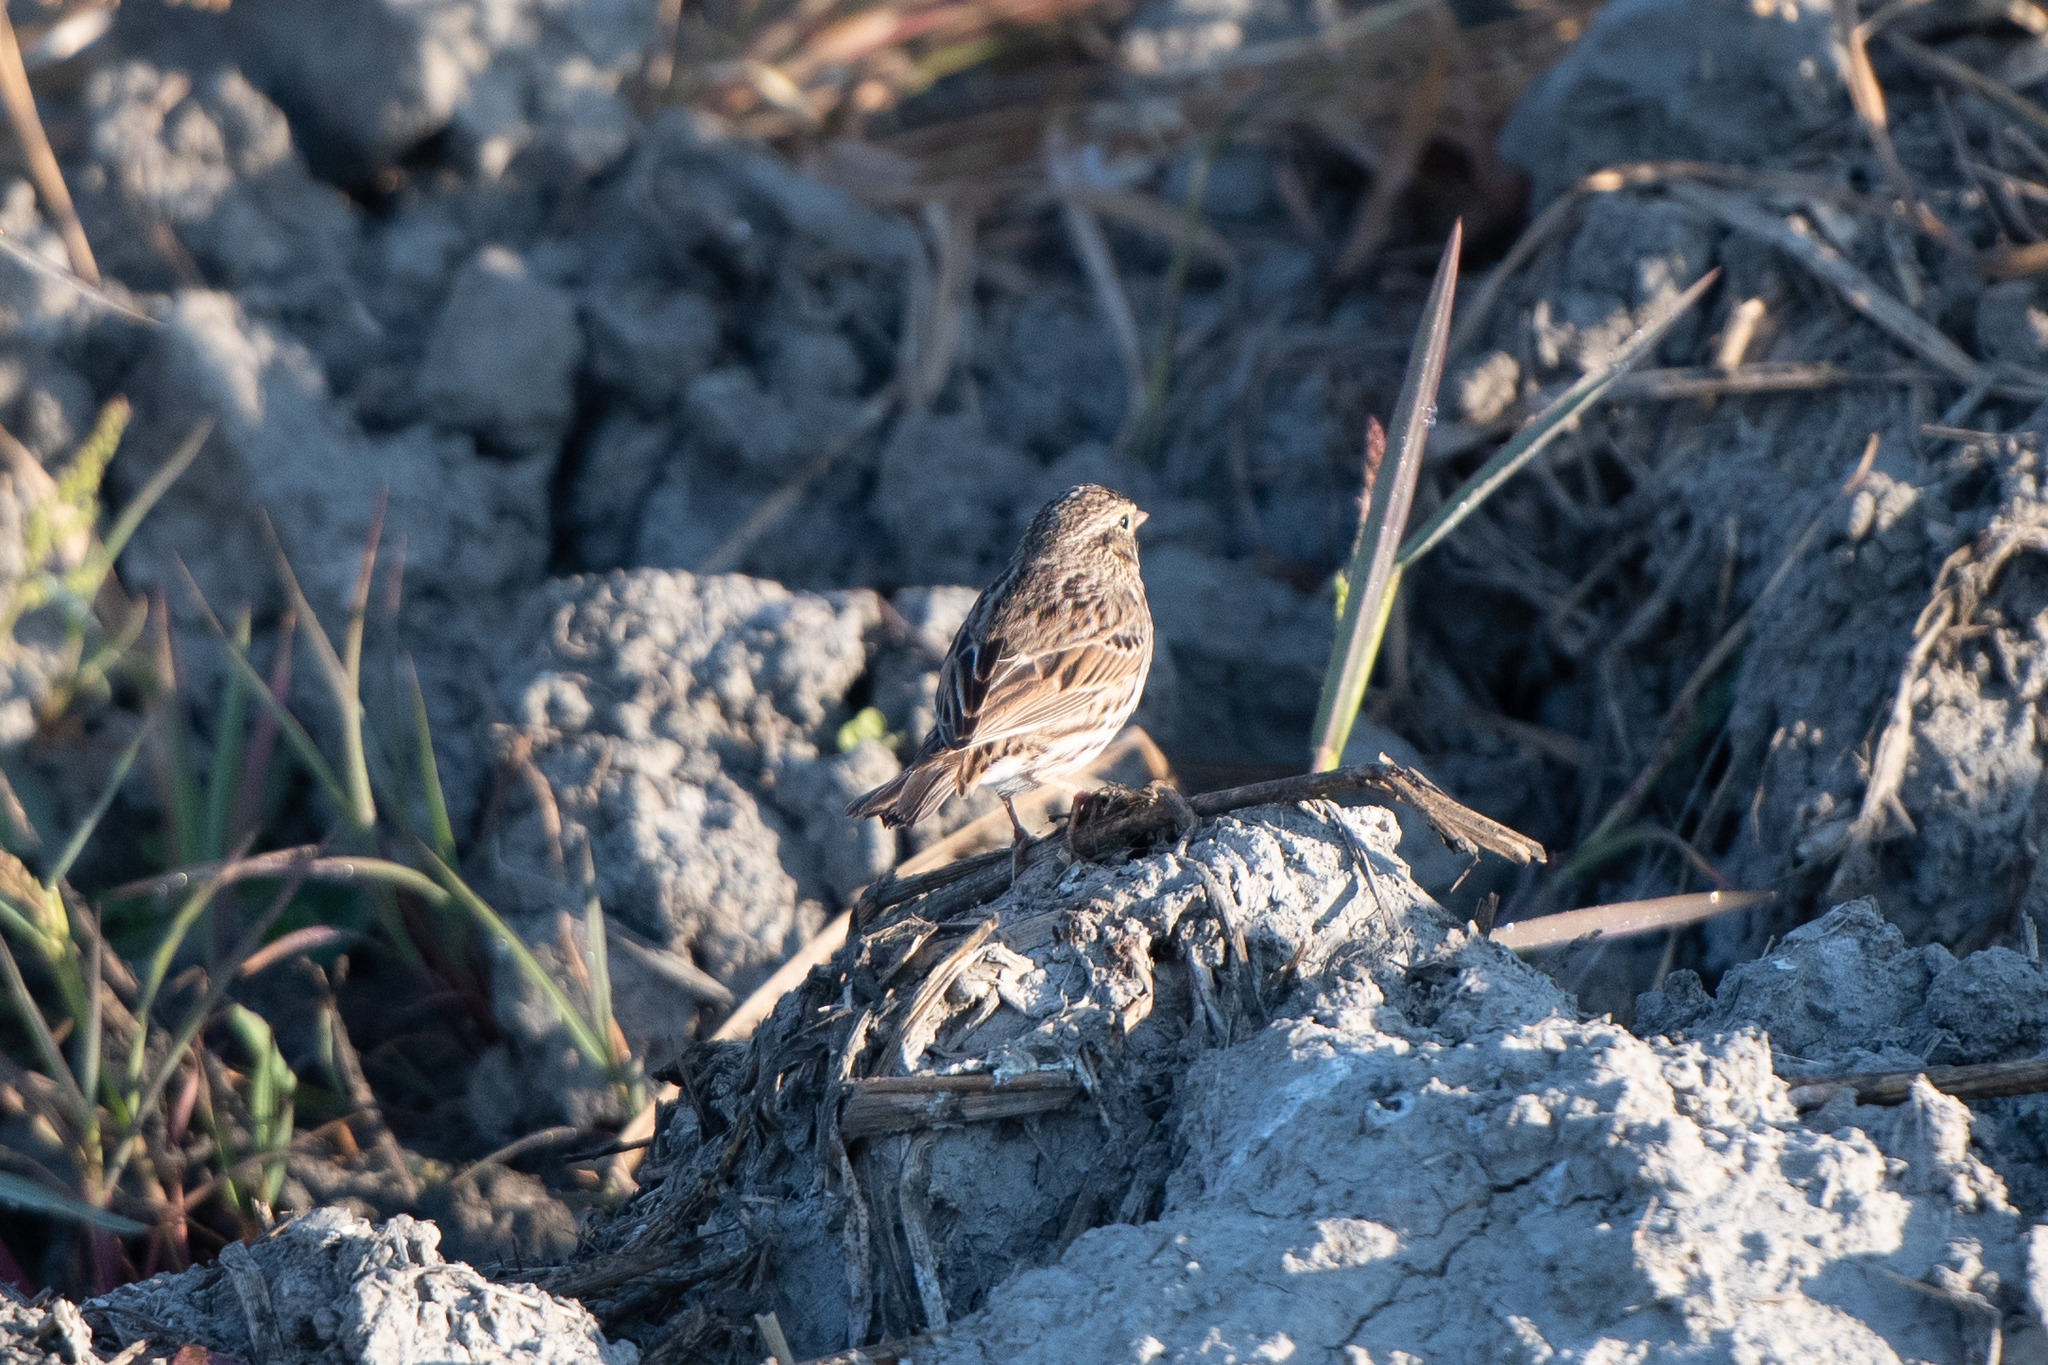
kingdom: Animalia
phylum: Chordata
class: Aves
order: Passeriformes
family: Passerellidae
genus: Passerculus
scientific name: Passerculus sandwichensis
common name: Savannah sparrow
